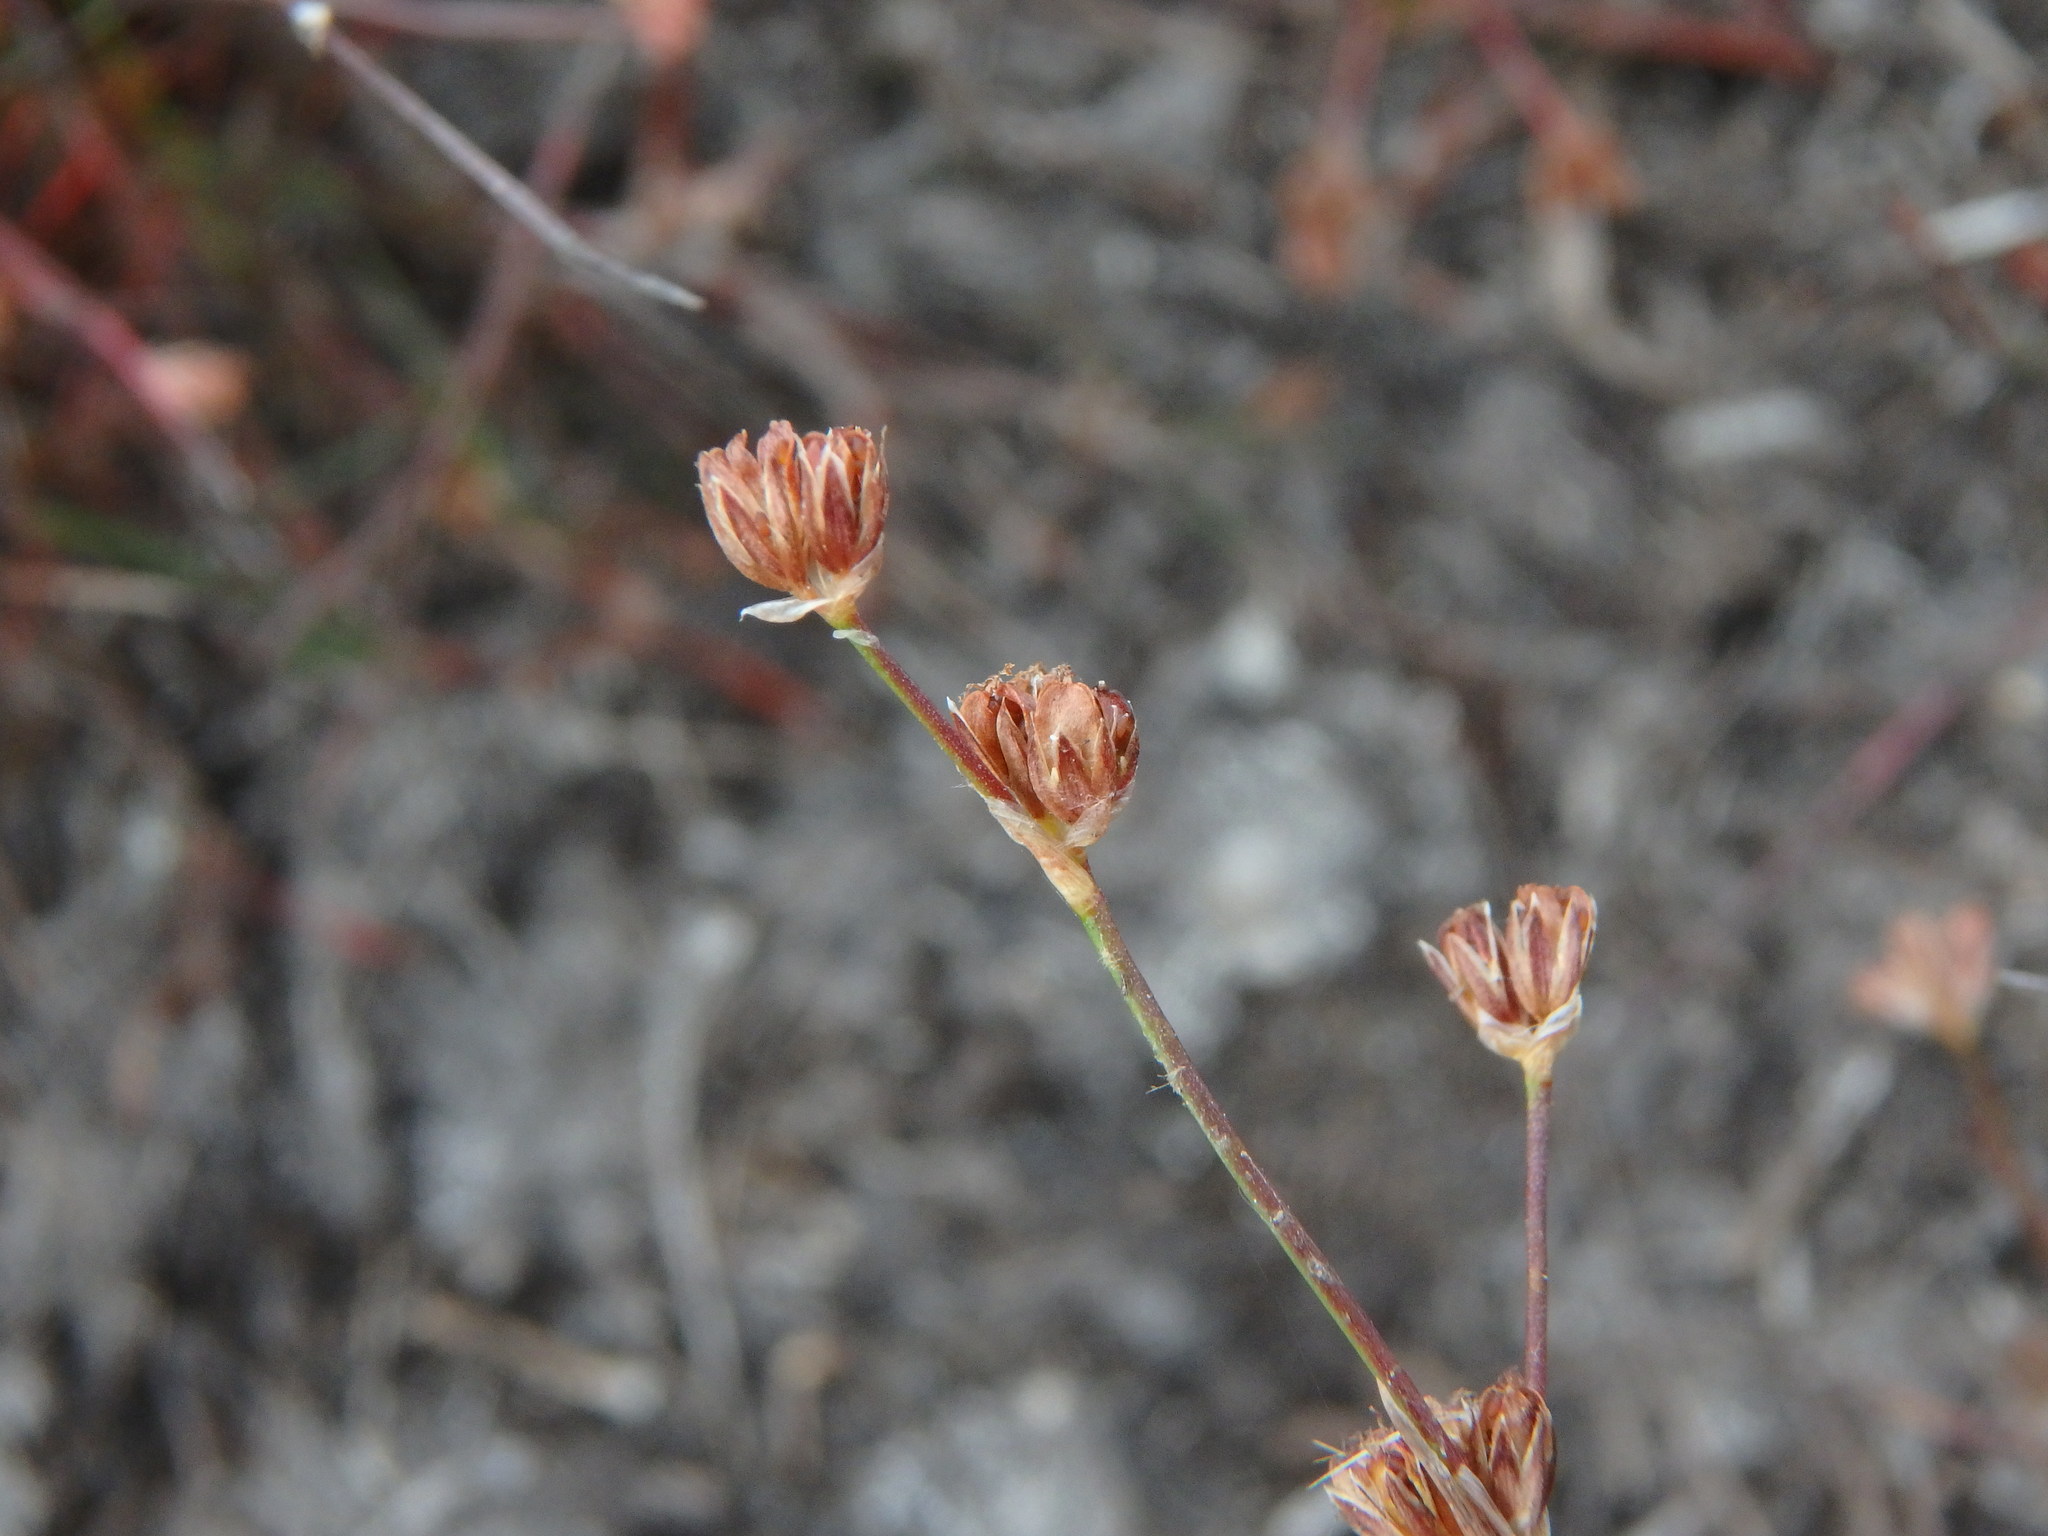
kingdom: Plantae
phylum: Tracheophyta
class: Liliopsida
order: Poales
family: Juncaceae
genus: Juncus
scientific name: Juncus articulatus
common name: Jointed rush
